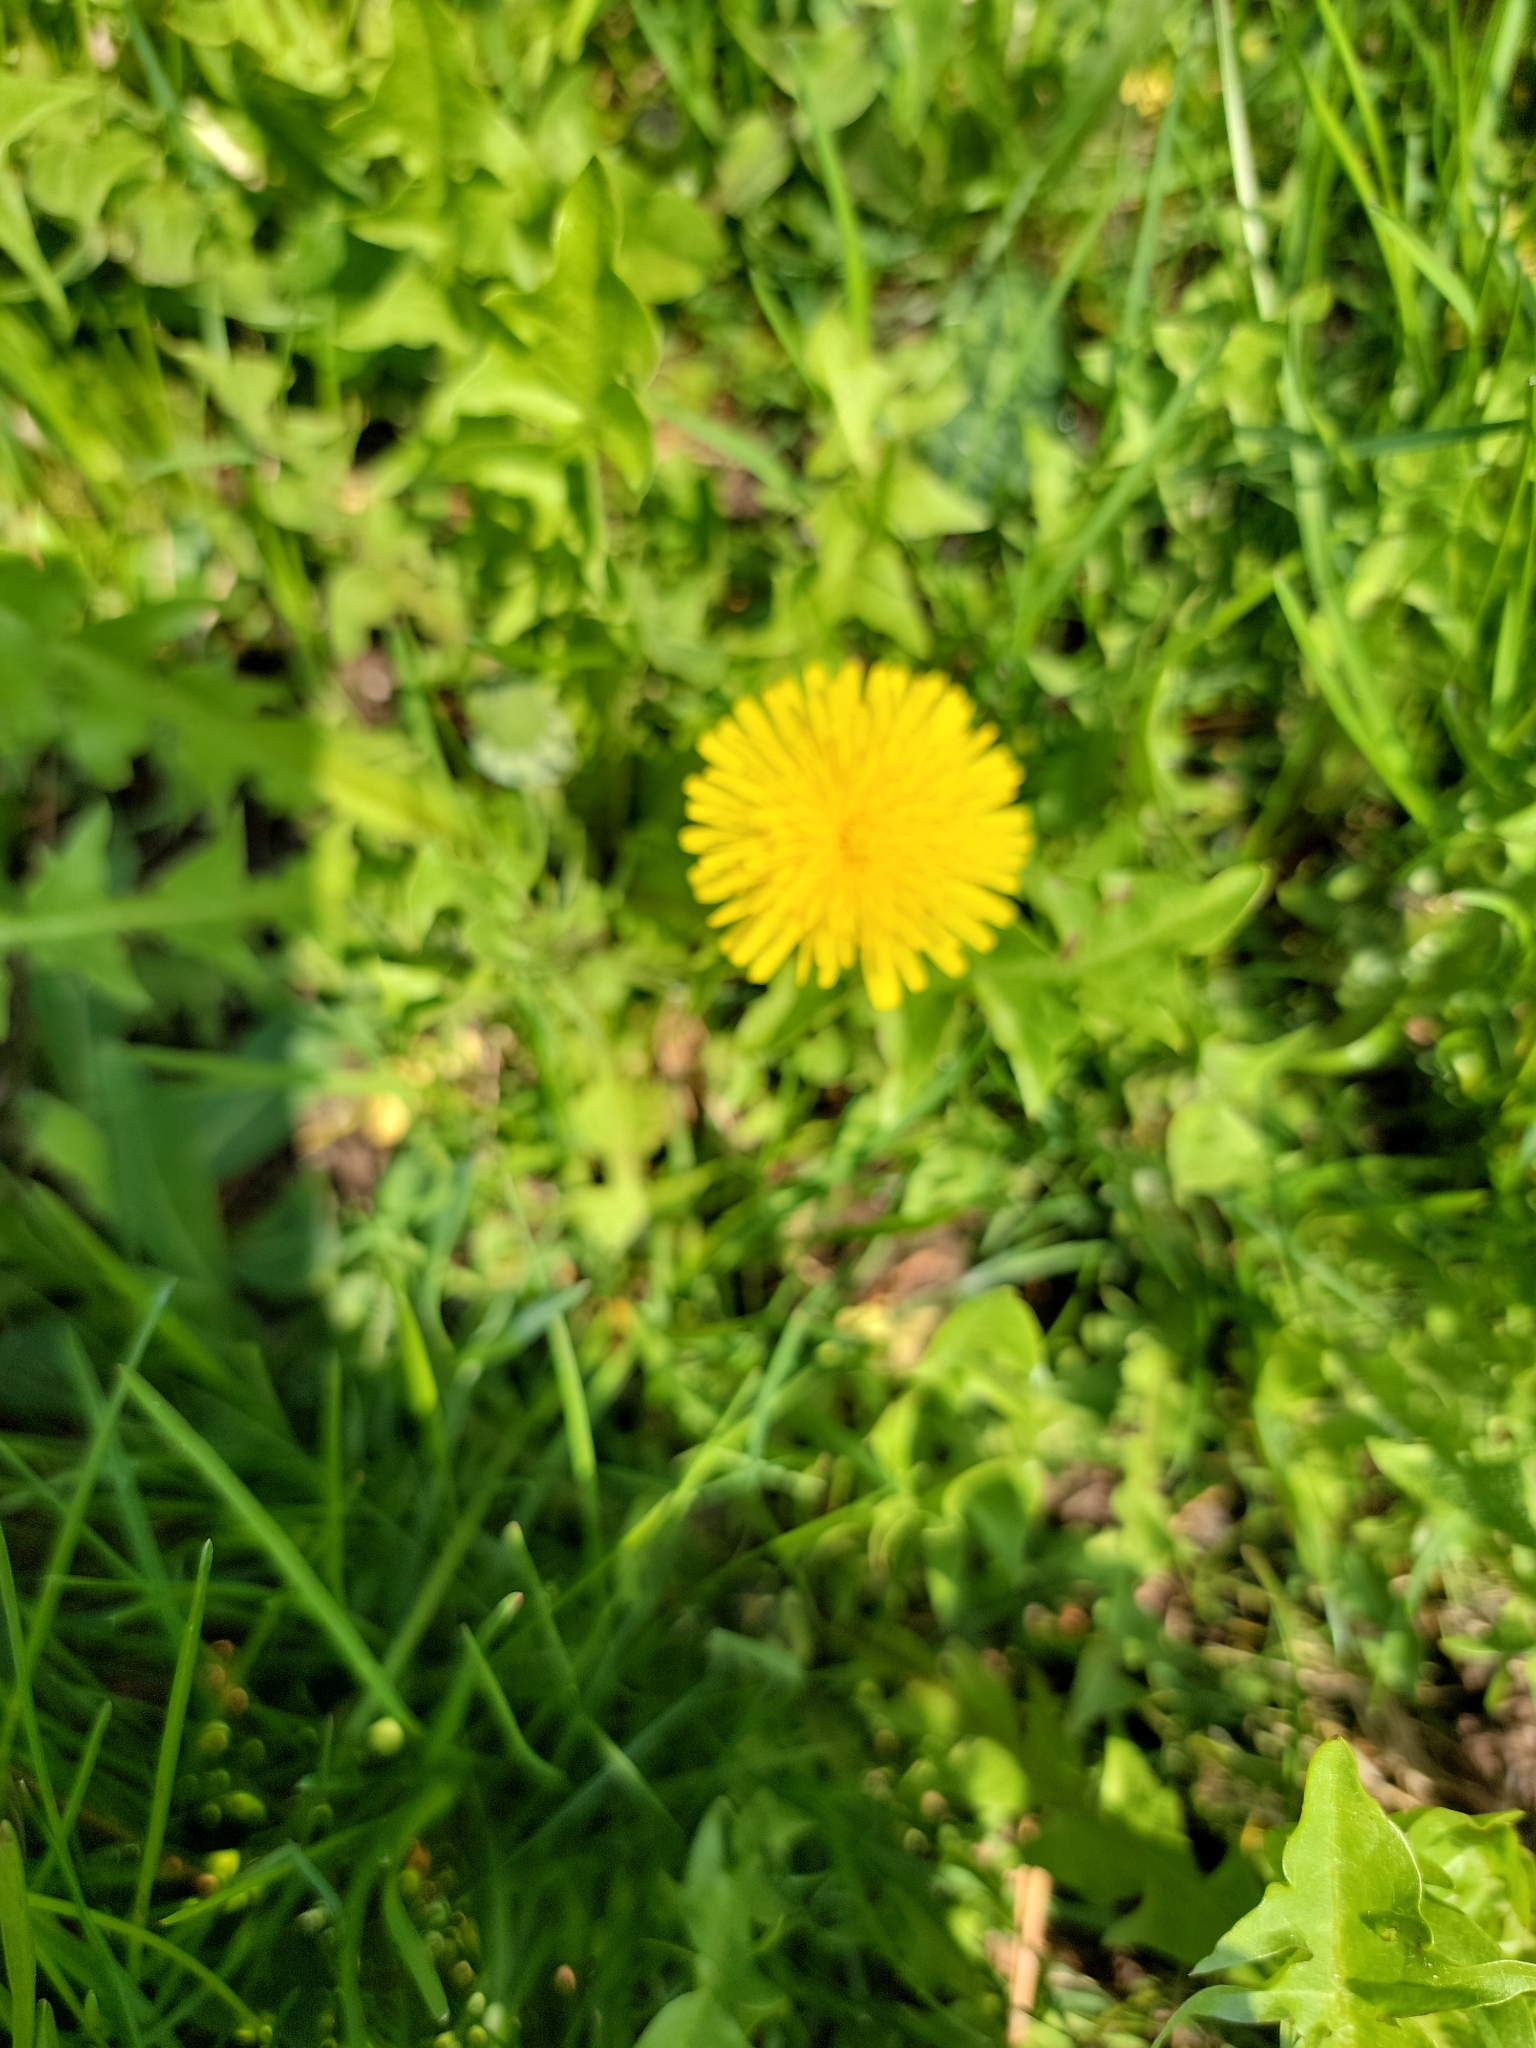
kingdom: Plantae
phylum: Tracheophyta
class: Magnoliopsida
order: Asterales
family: Asteraceae
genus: Taraxacum
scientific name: Taraxacum officinale
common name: Common dandelion
